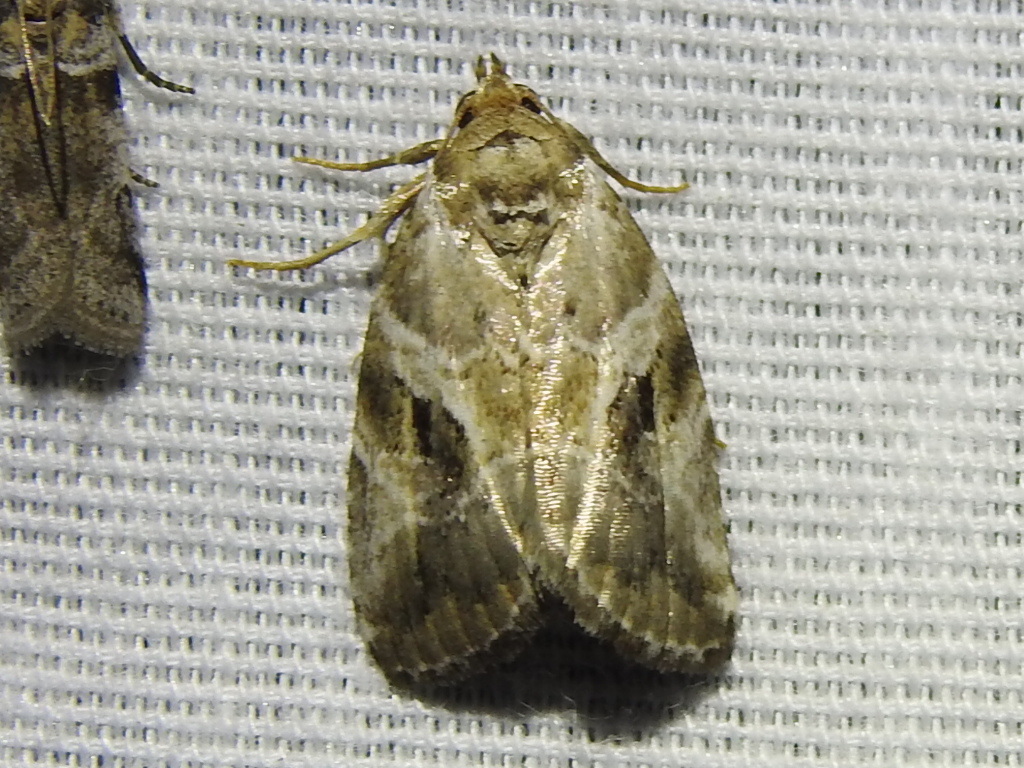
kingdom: Animalia
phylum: Arthropoda
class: Insecta
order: Lepidoptera
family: Noctuidae
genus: Diastema
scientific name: Diastema cnossia
